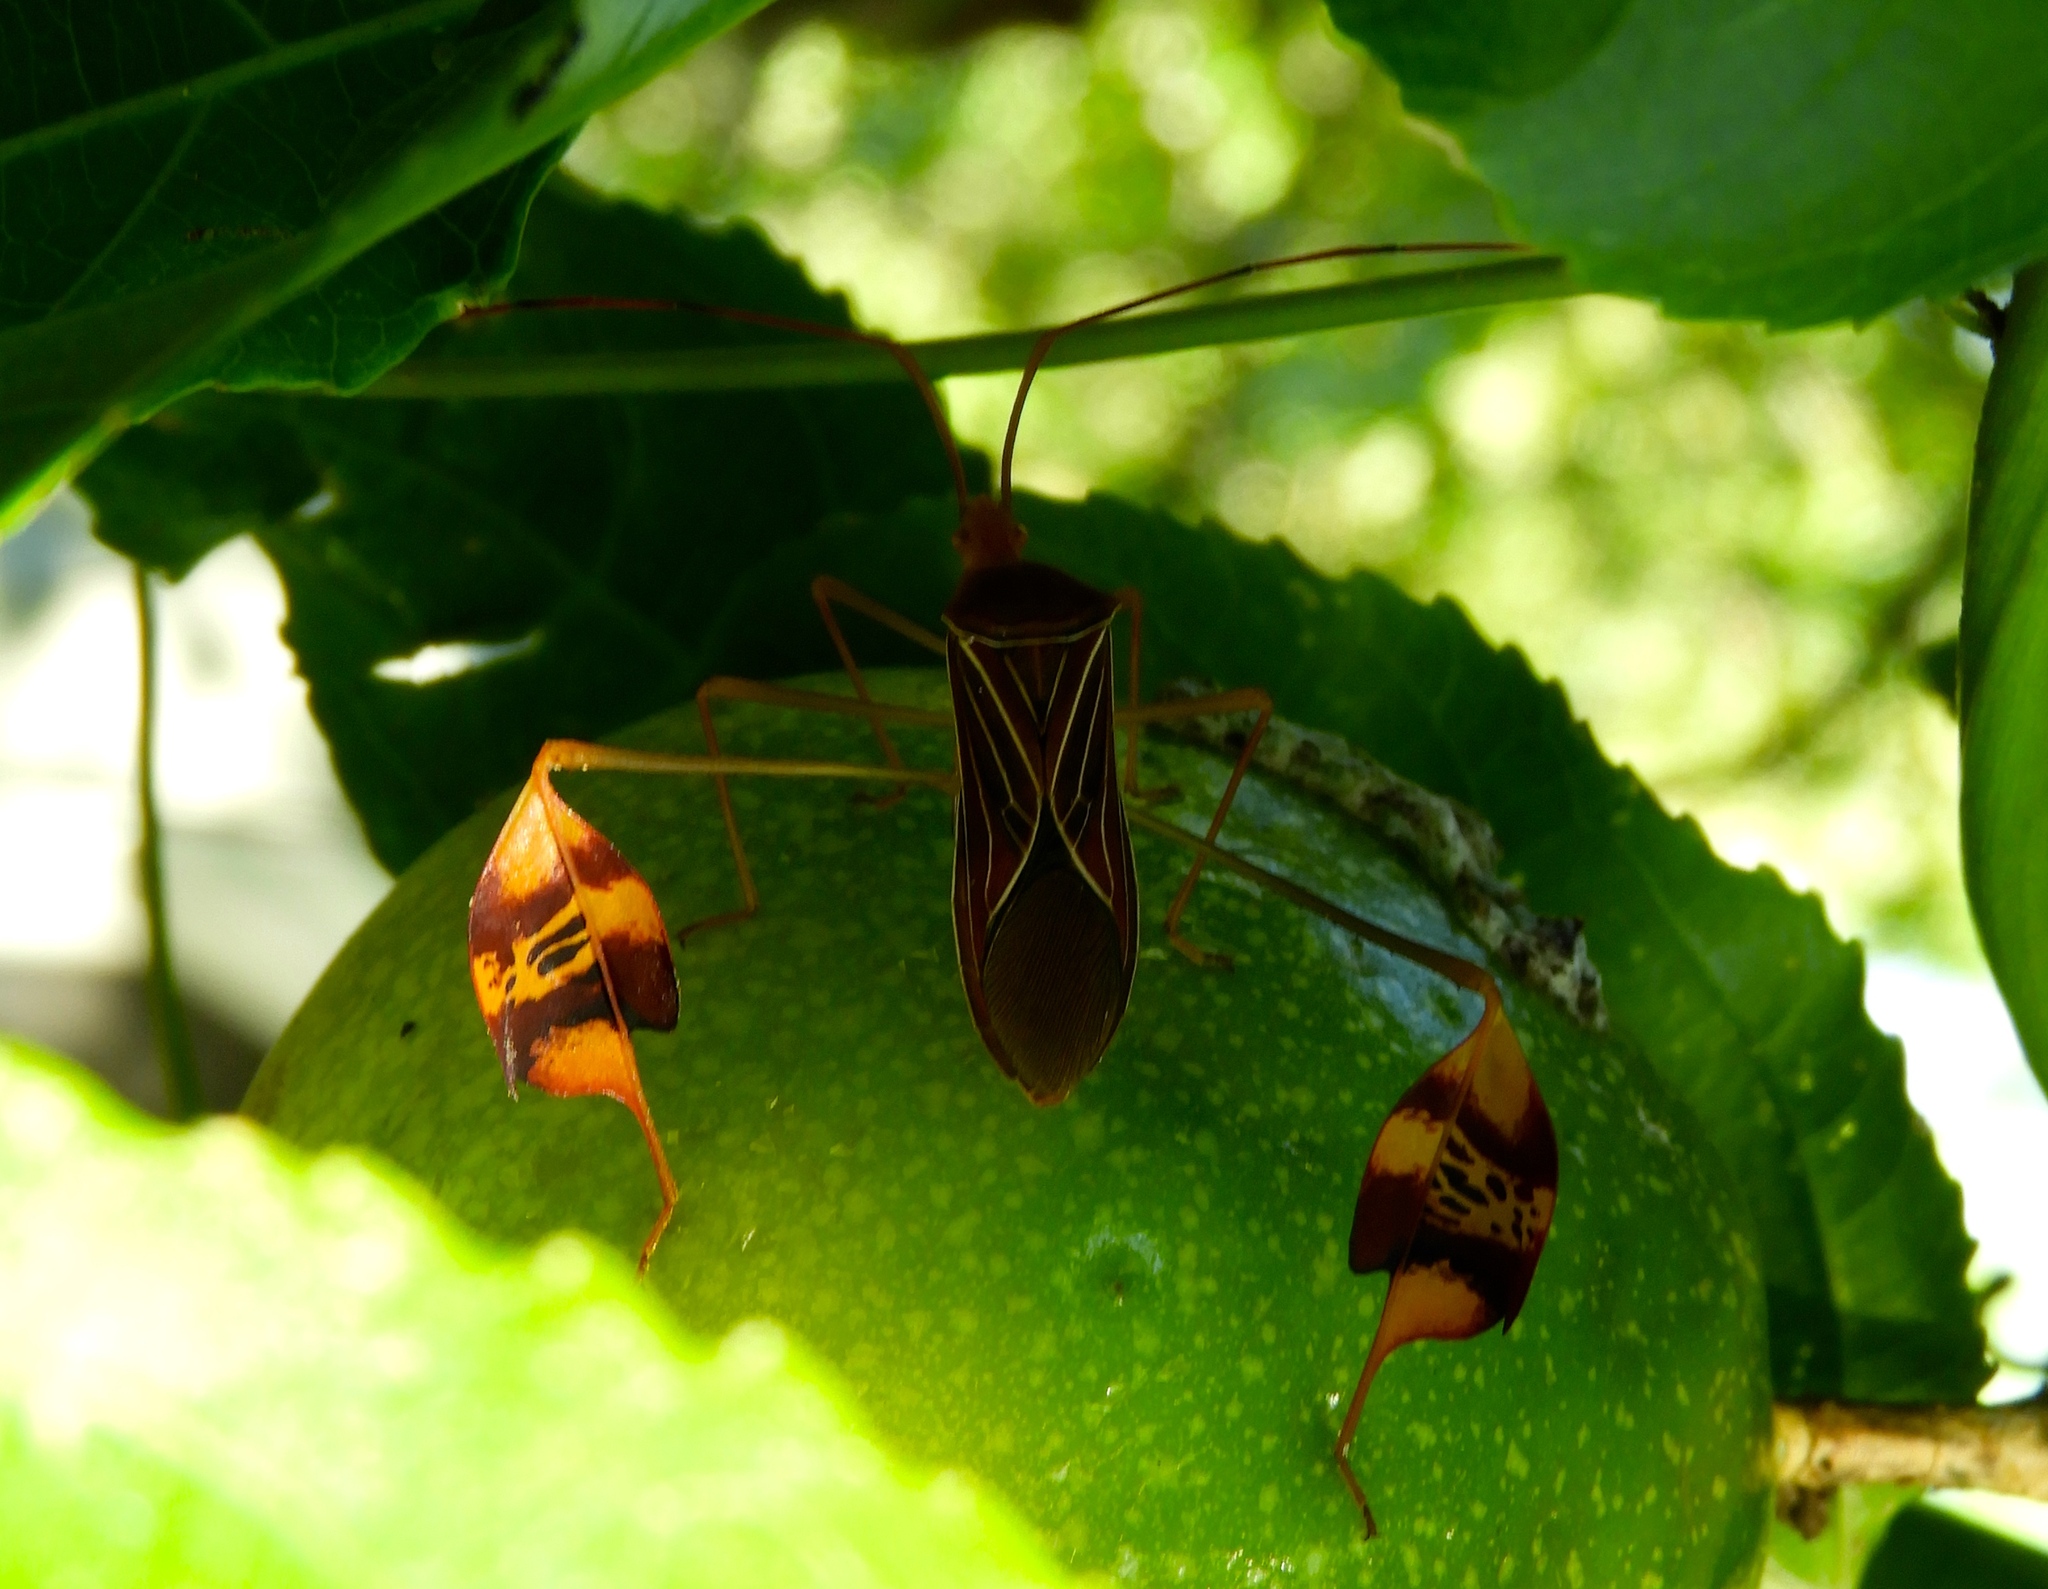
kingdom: Animalia
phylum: Arthropoda
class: Insecta
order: Hemiptera
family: Coreidae
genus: Bitta
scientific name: Bitta
